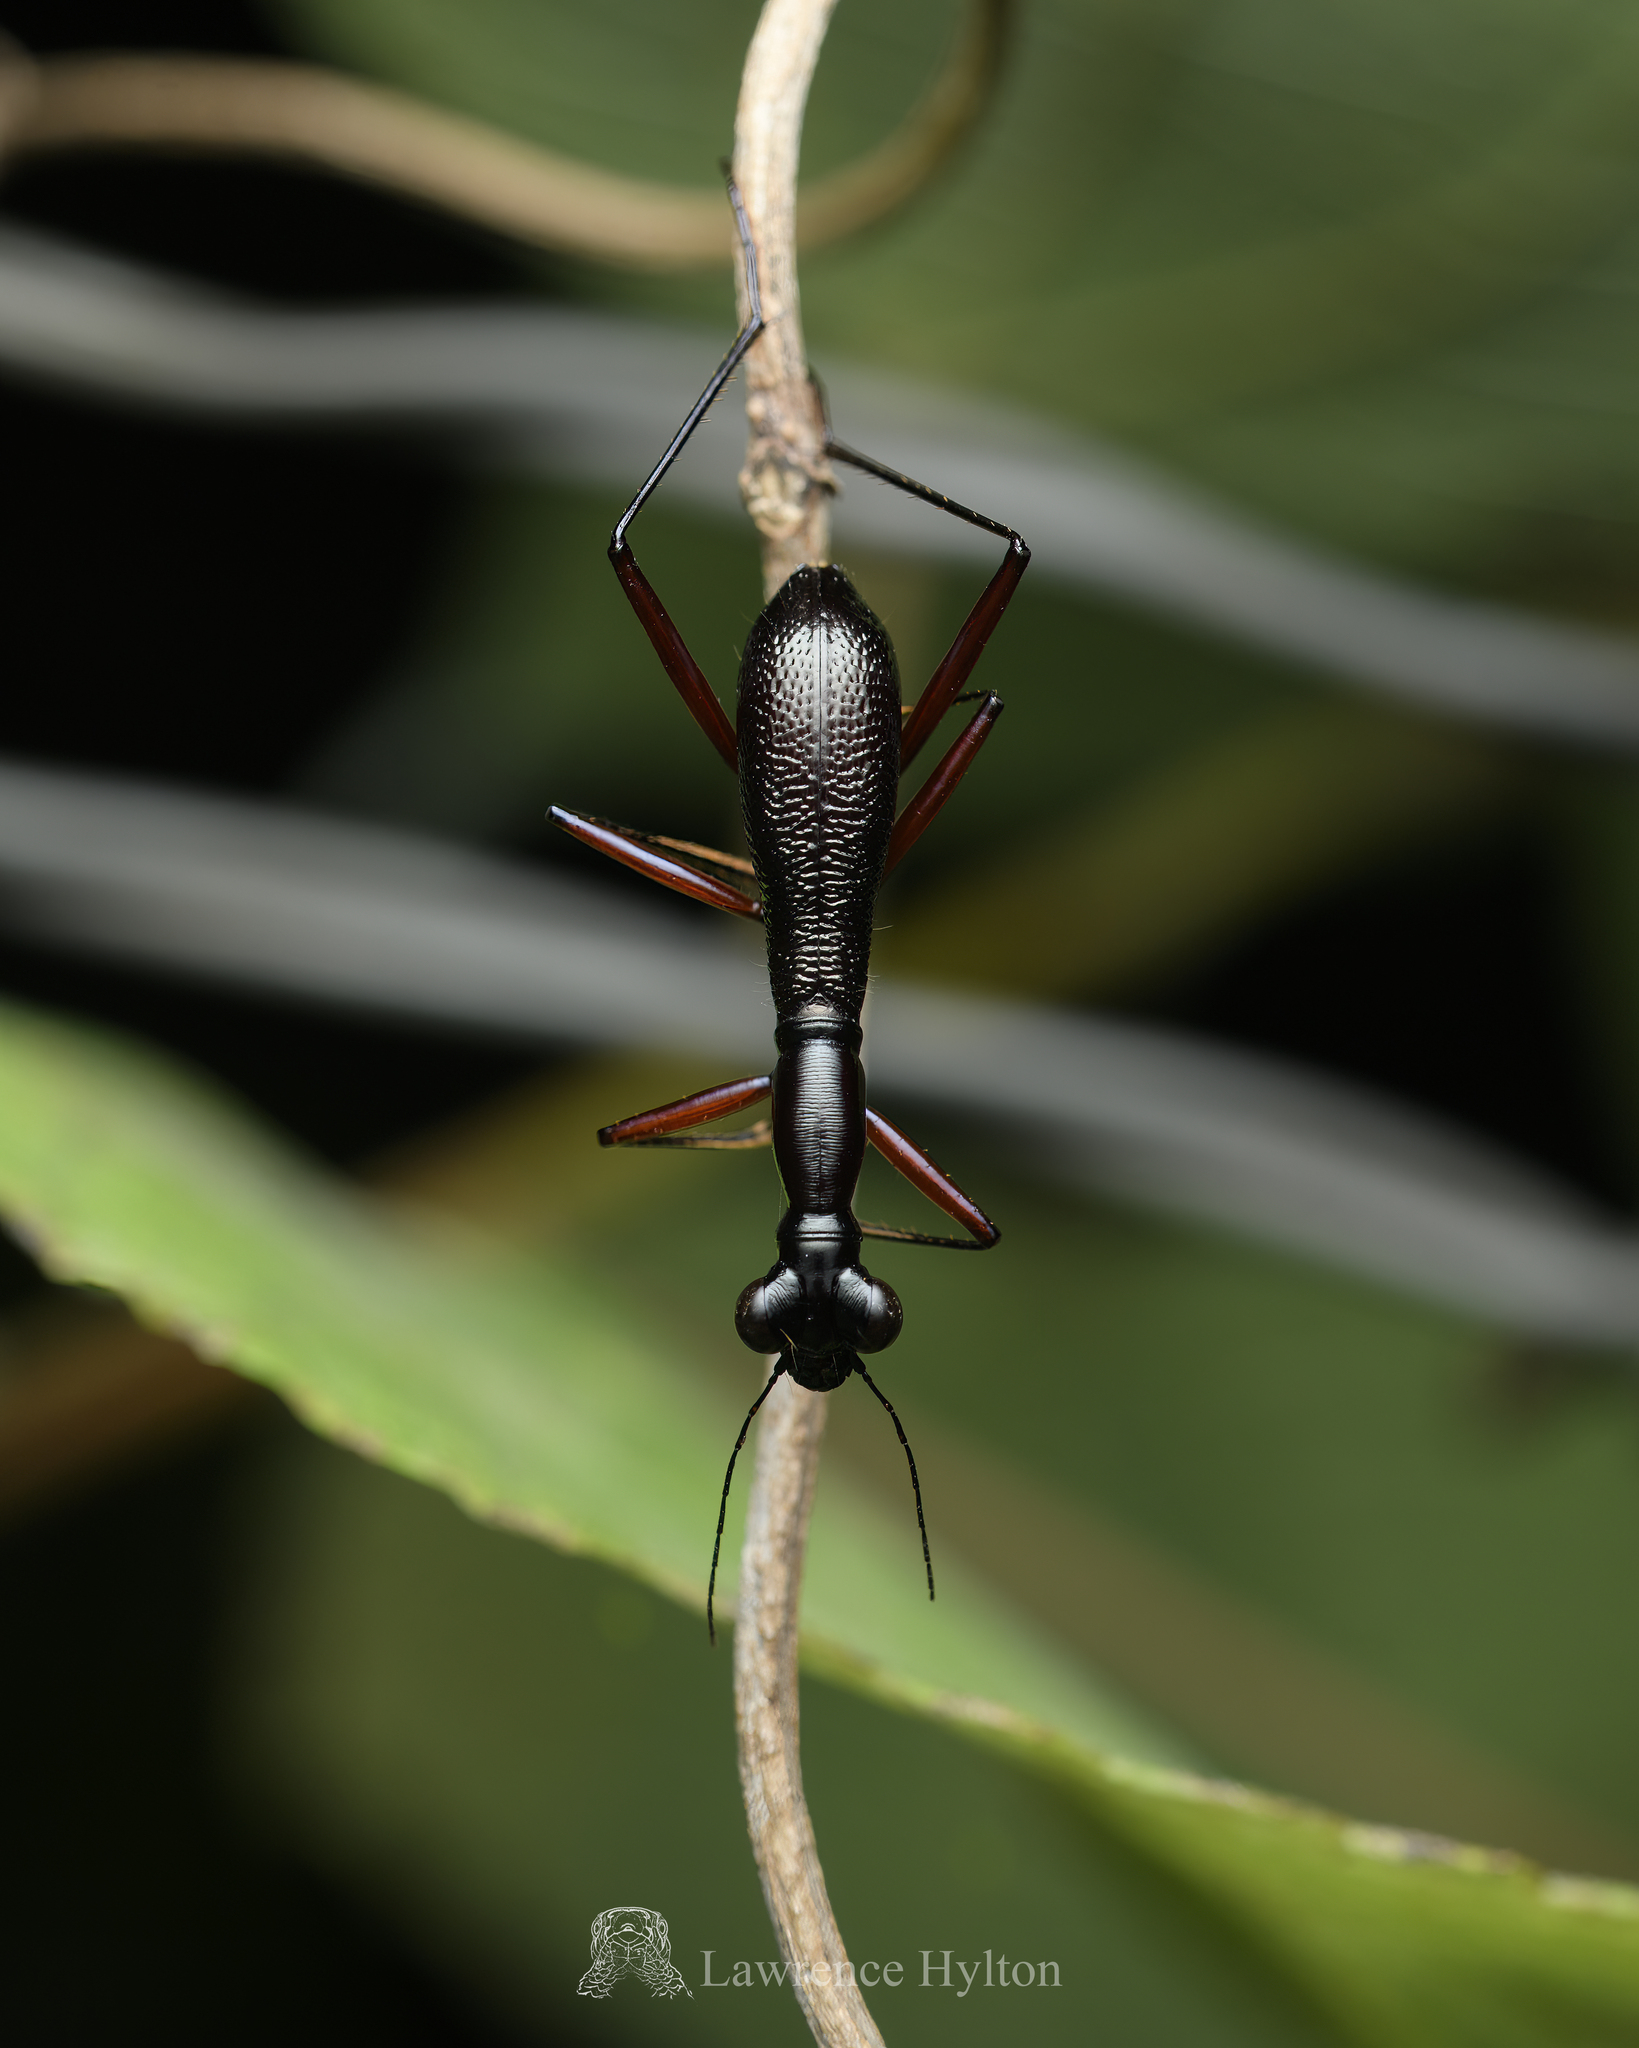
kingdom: Animalia
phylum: Arthropoda
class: Insecta
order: Coleoptera
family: Carabidae
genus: Tricondyla
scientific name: Tricondyla pulchripes
